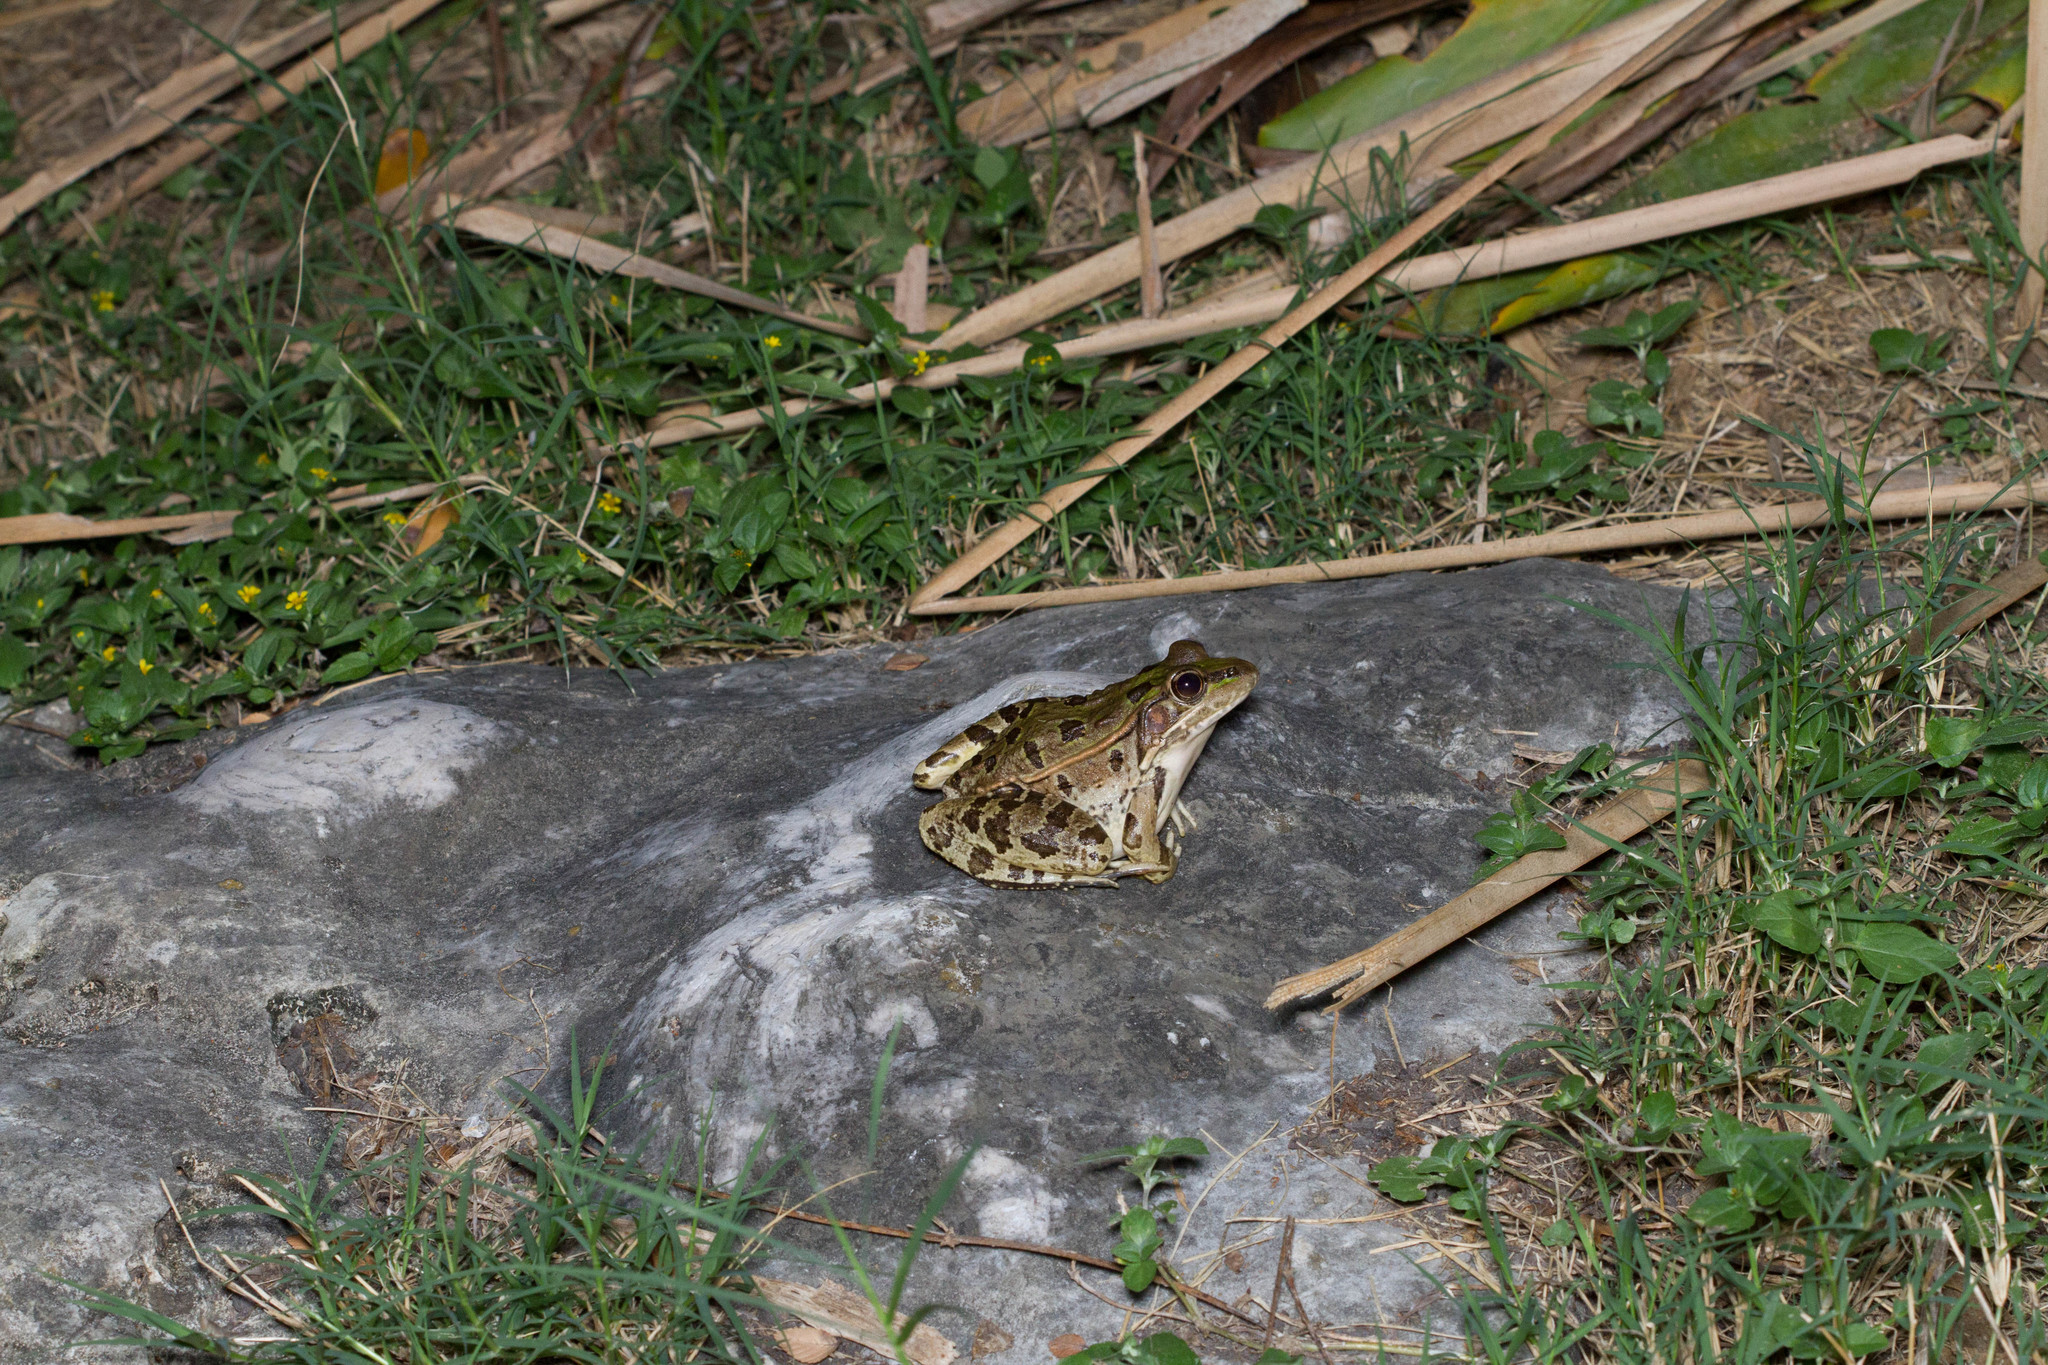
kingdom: Animalia
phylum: Chordata
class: Amphibia
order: Anura
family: Ranidae
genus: Lithobates
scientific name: Lithobates berlandieri
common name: Rio grande leopard frog
